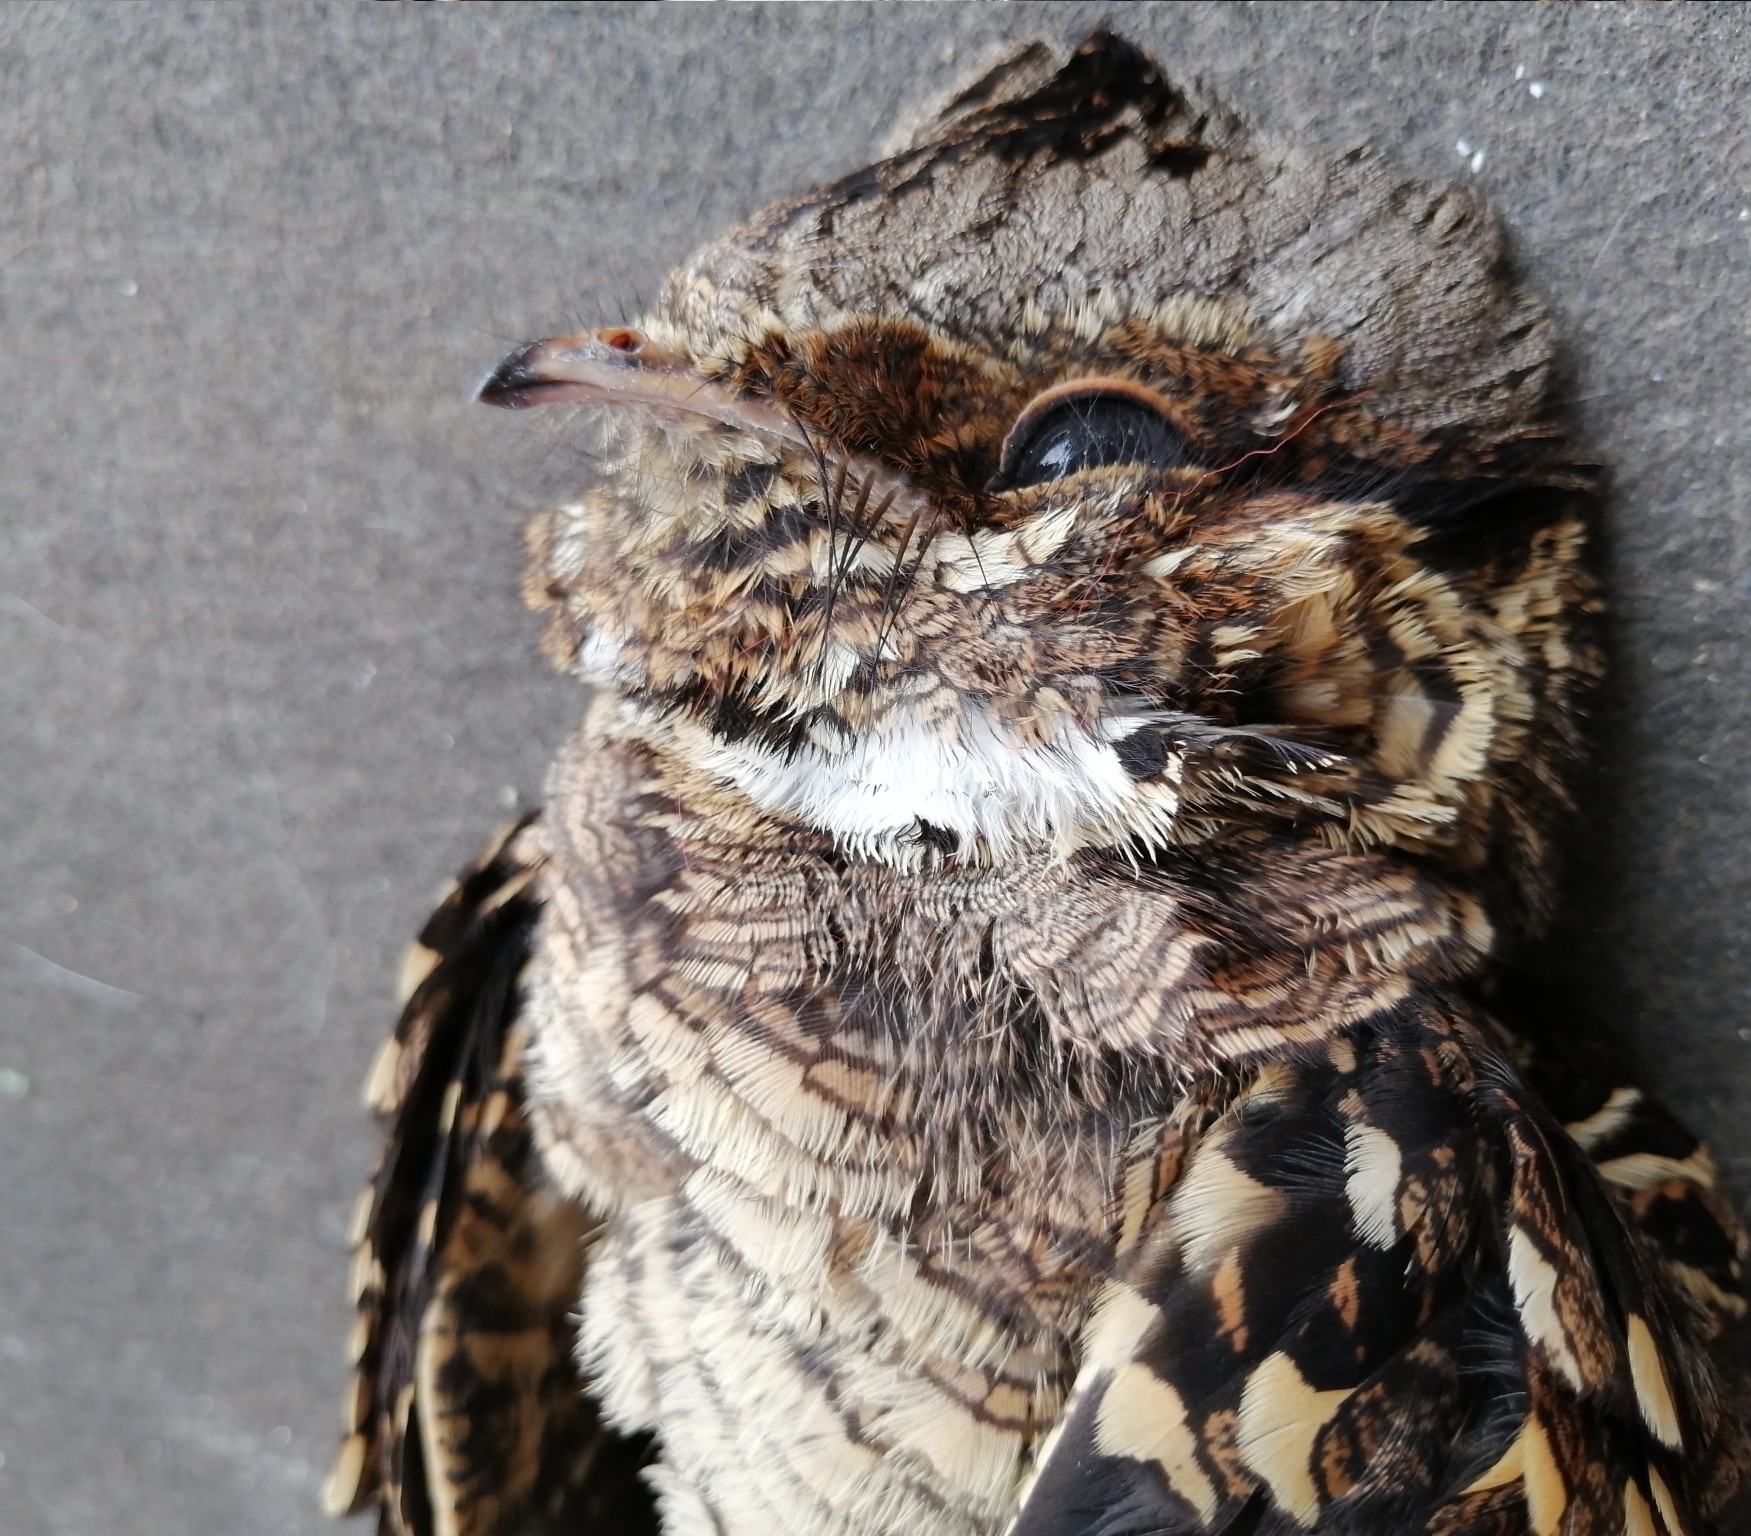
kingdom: Animalia
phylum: Chordata
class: Aves
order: Caprimulgiformes
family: Caprimulgidae
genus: Nyctidromus
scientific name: Nyctidromus albicollis
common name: Pauraque
